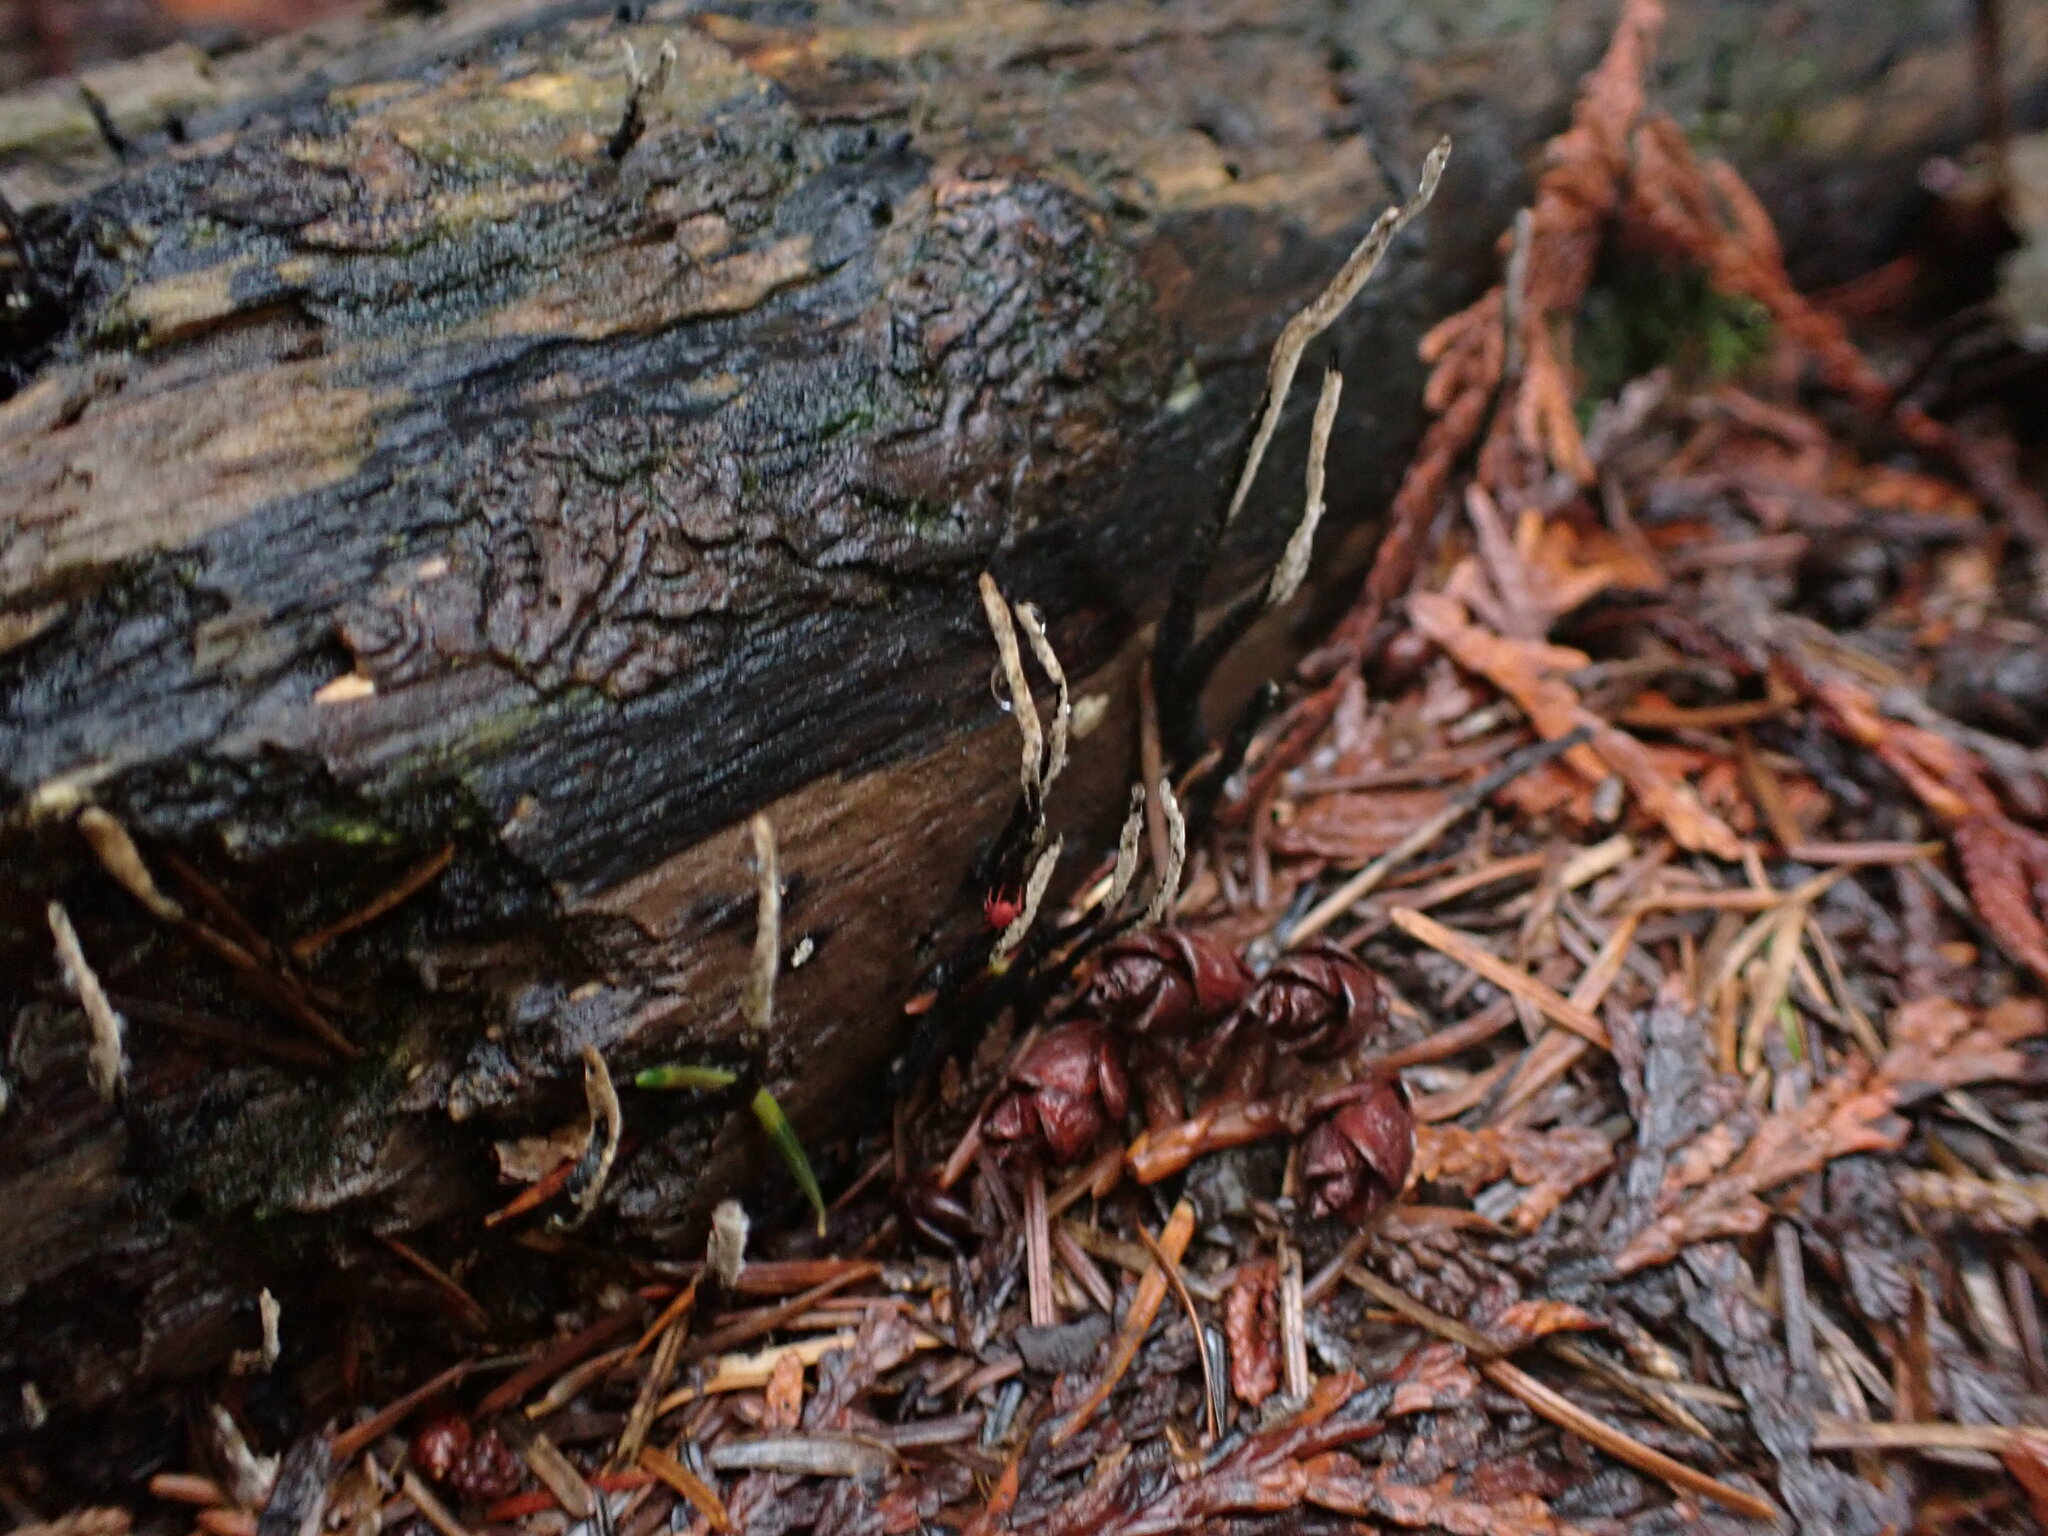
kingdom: Fungi
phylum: Ascomycota
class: Sordariomycetes
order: Xylariales
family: Xylariaceae
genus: Xylaria
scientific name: Xylaria hypoxylon
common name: Candle-snuff fungus
